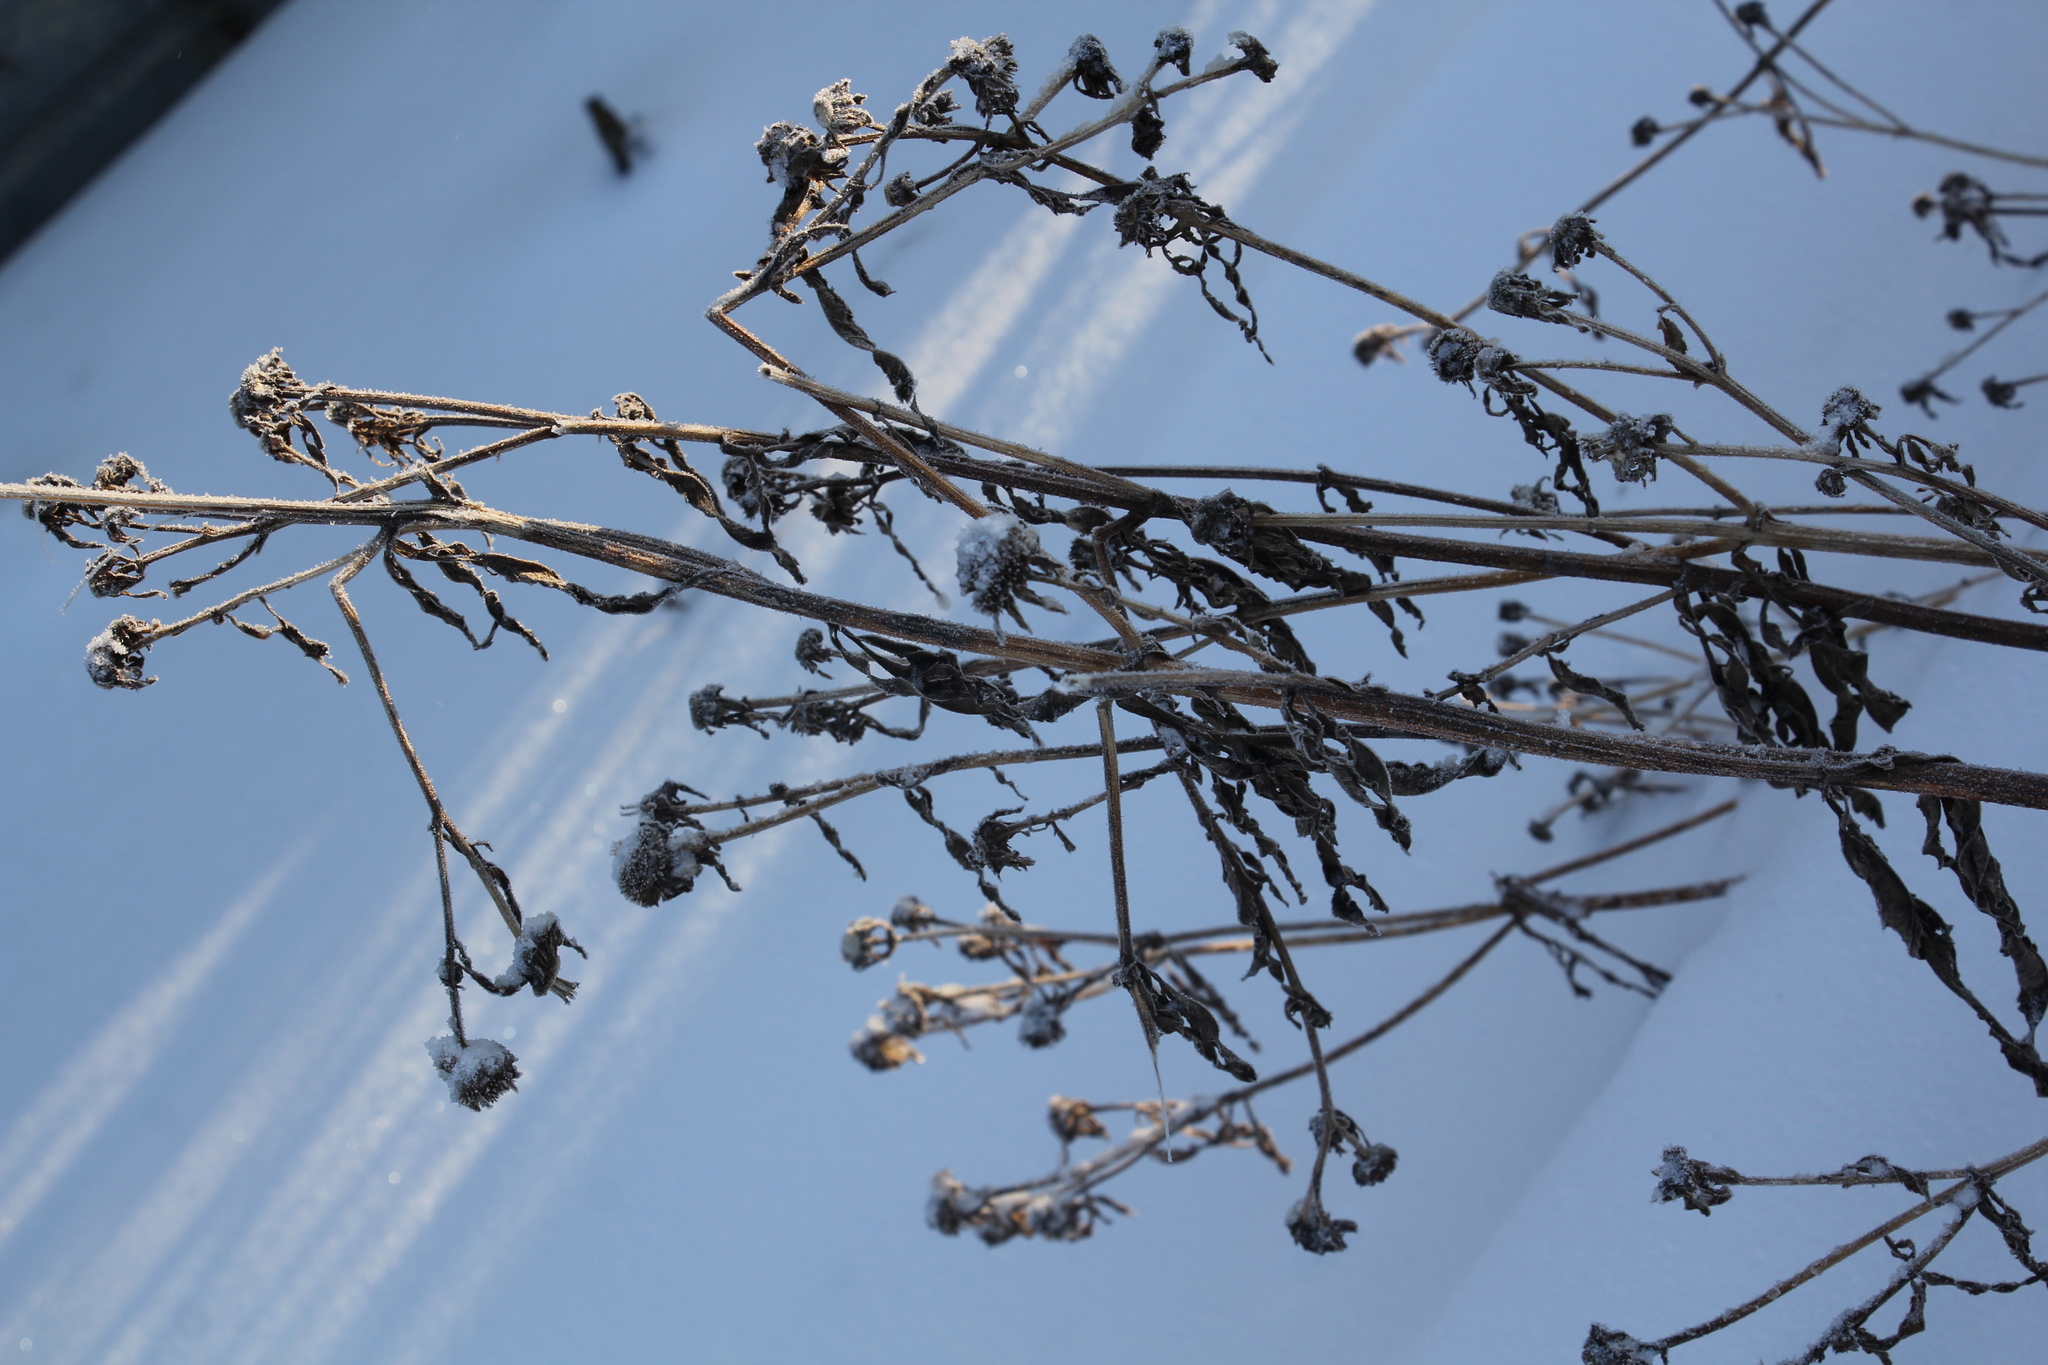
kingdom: Plantae
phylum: Tracheophyta
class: Magnoliopsida
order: Asterales
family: Asteraceae
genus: Bidens
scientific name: Bidens tripartita
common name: Trifid bur-marigold
